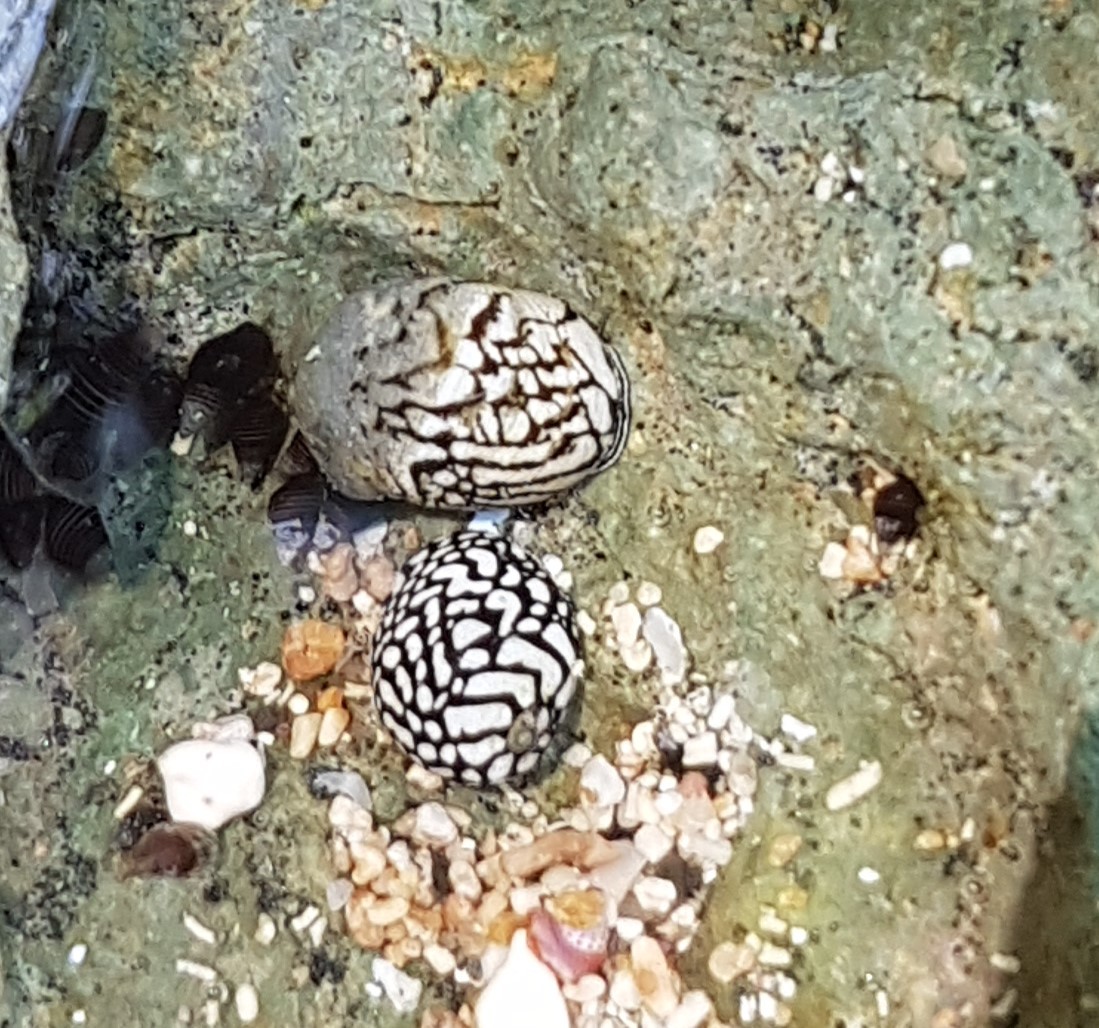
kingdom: Animalia
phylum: Mollusca
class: Gastropoda
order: Cycloneritida
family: Neritidae
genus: Puperita
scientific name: Puperita pupa
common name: Zebra nerite
